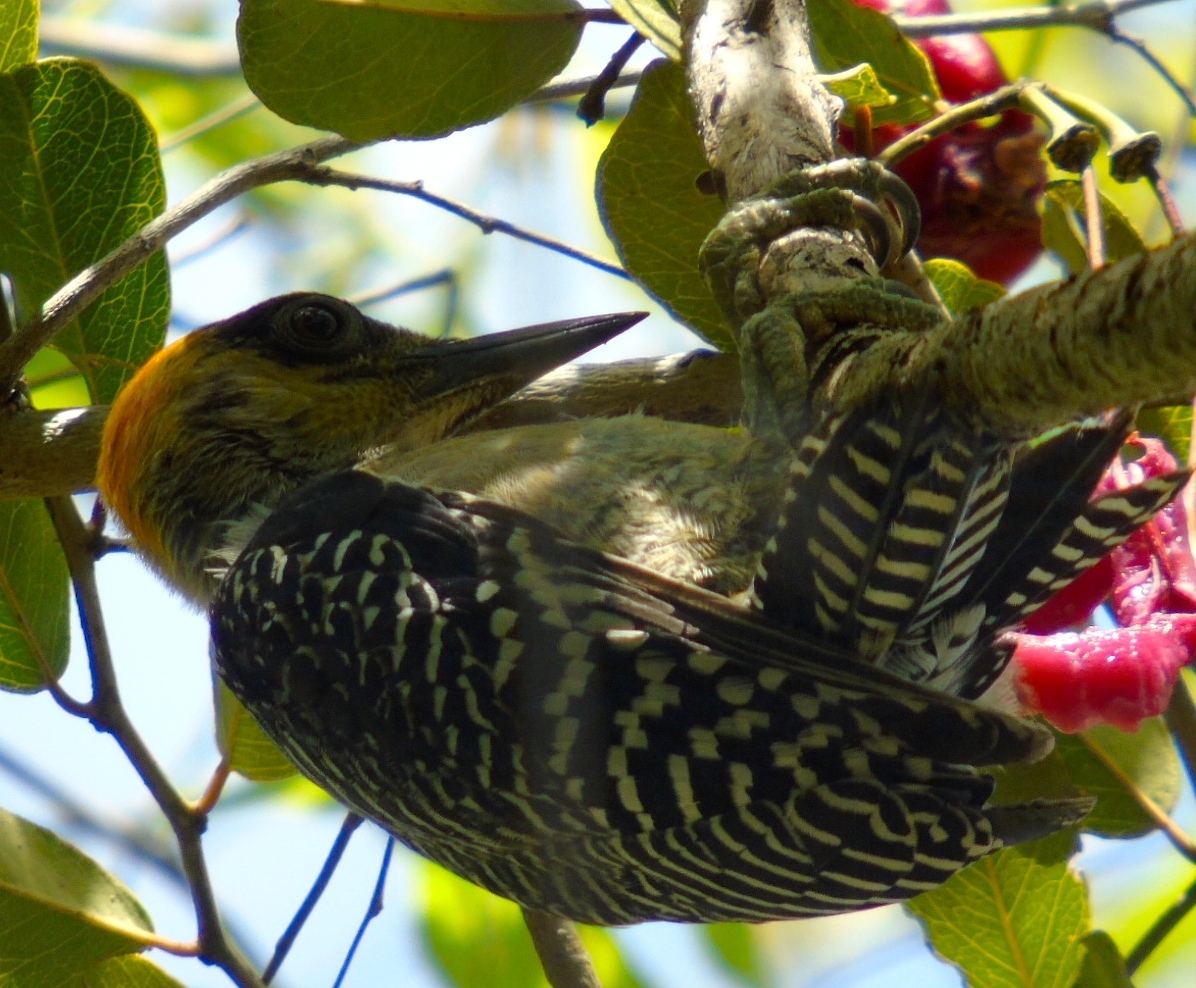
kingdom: Animalia
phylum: Chordata
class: Aves
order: Piciformes
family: Picidae
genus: Melanerpes
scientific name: Melanerpes chrysogenys
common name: Golden-cheeked woodpecker
